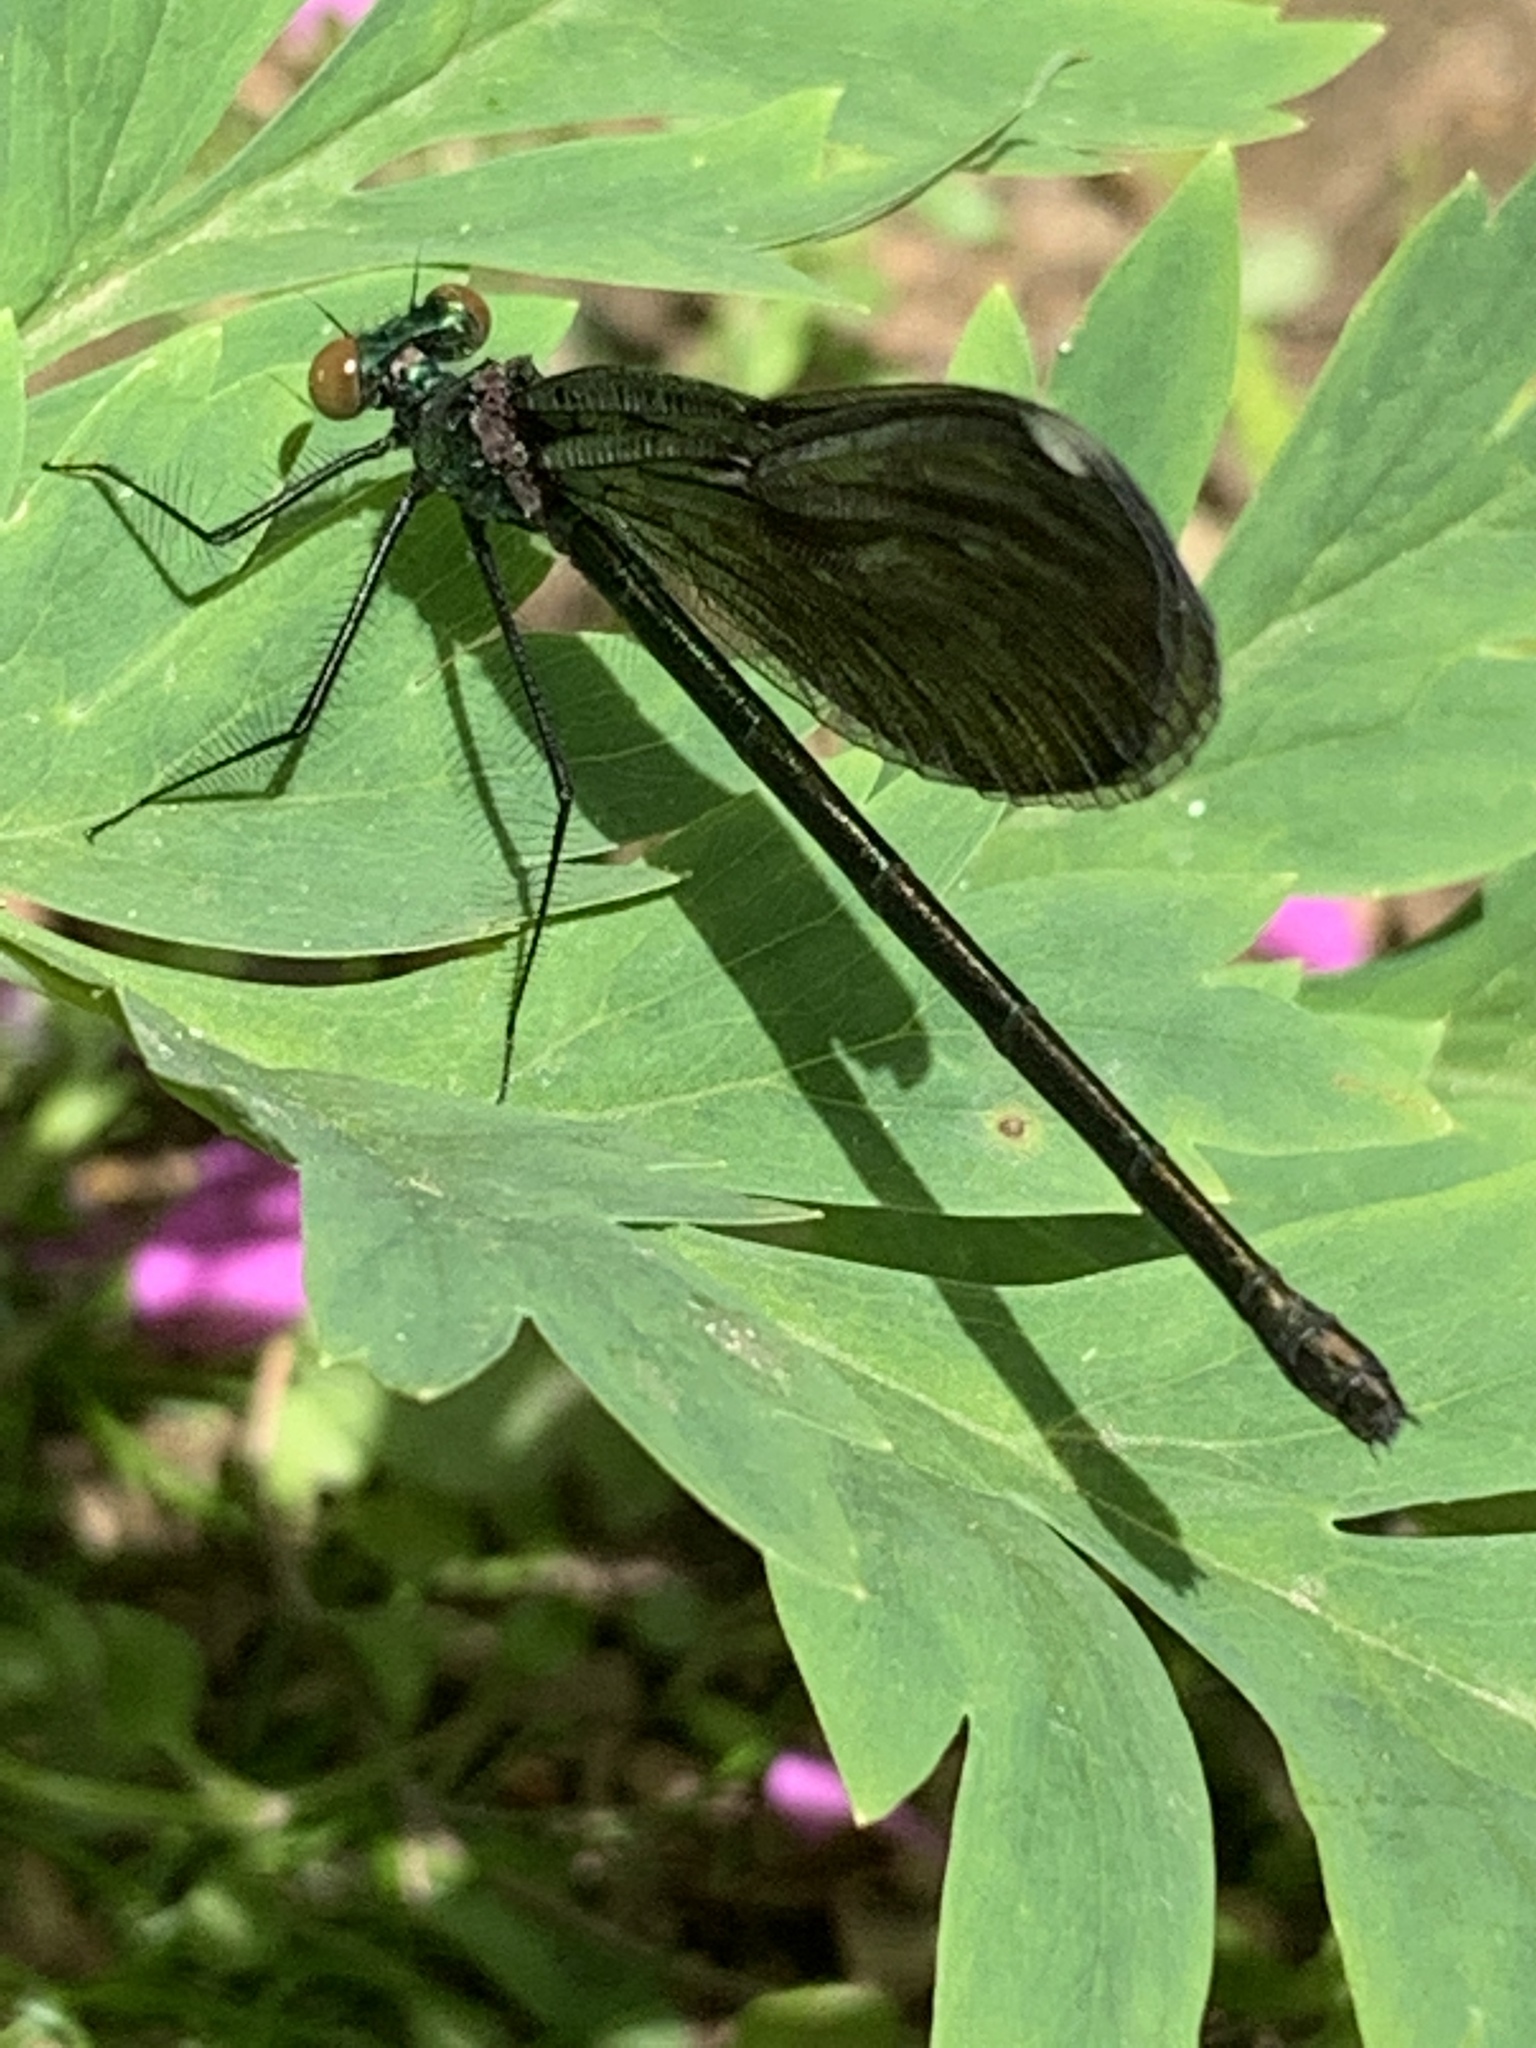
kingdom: Animalia
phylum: Arthropoda
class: Insecta
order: Odonata
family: Calopterygidae
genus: Calopteryx
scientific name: Calopteryx maculata
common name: Ebony jewelwing
